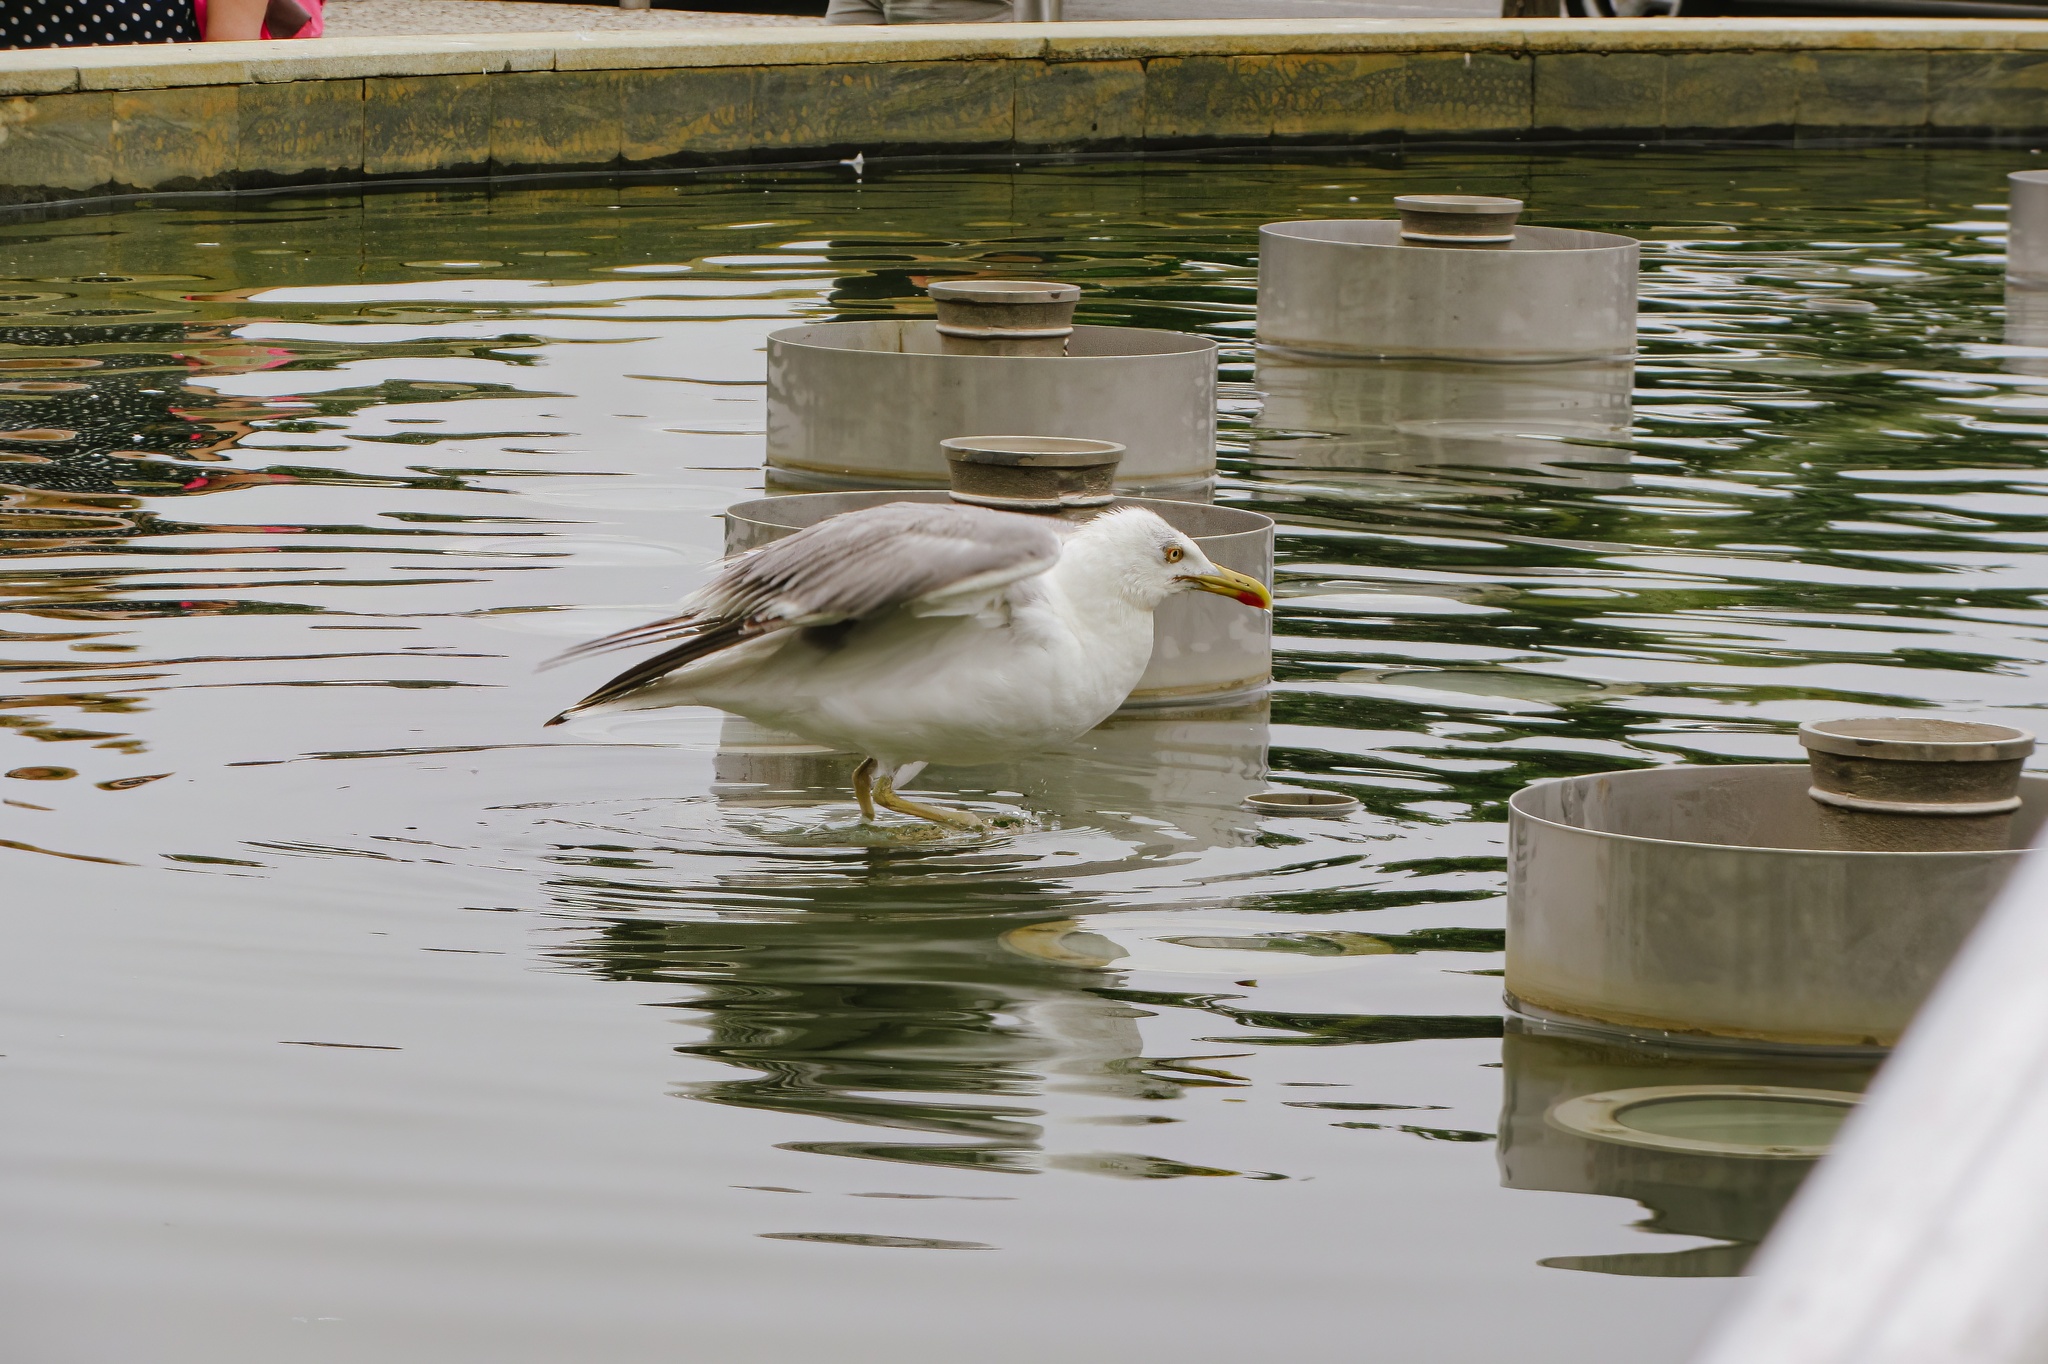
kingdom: Animalia
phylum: Chordata
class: Aves
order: Charadriiformes
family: Laridae
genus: Larus
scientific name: Larus michahellis
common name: Yellow-legged gull
